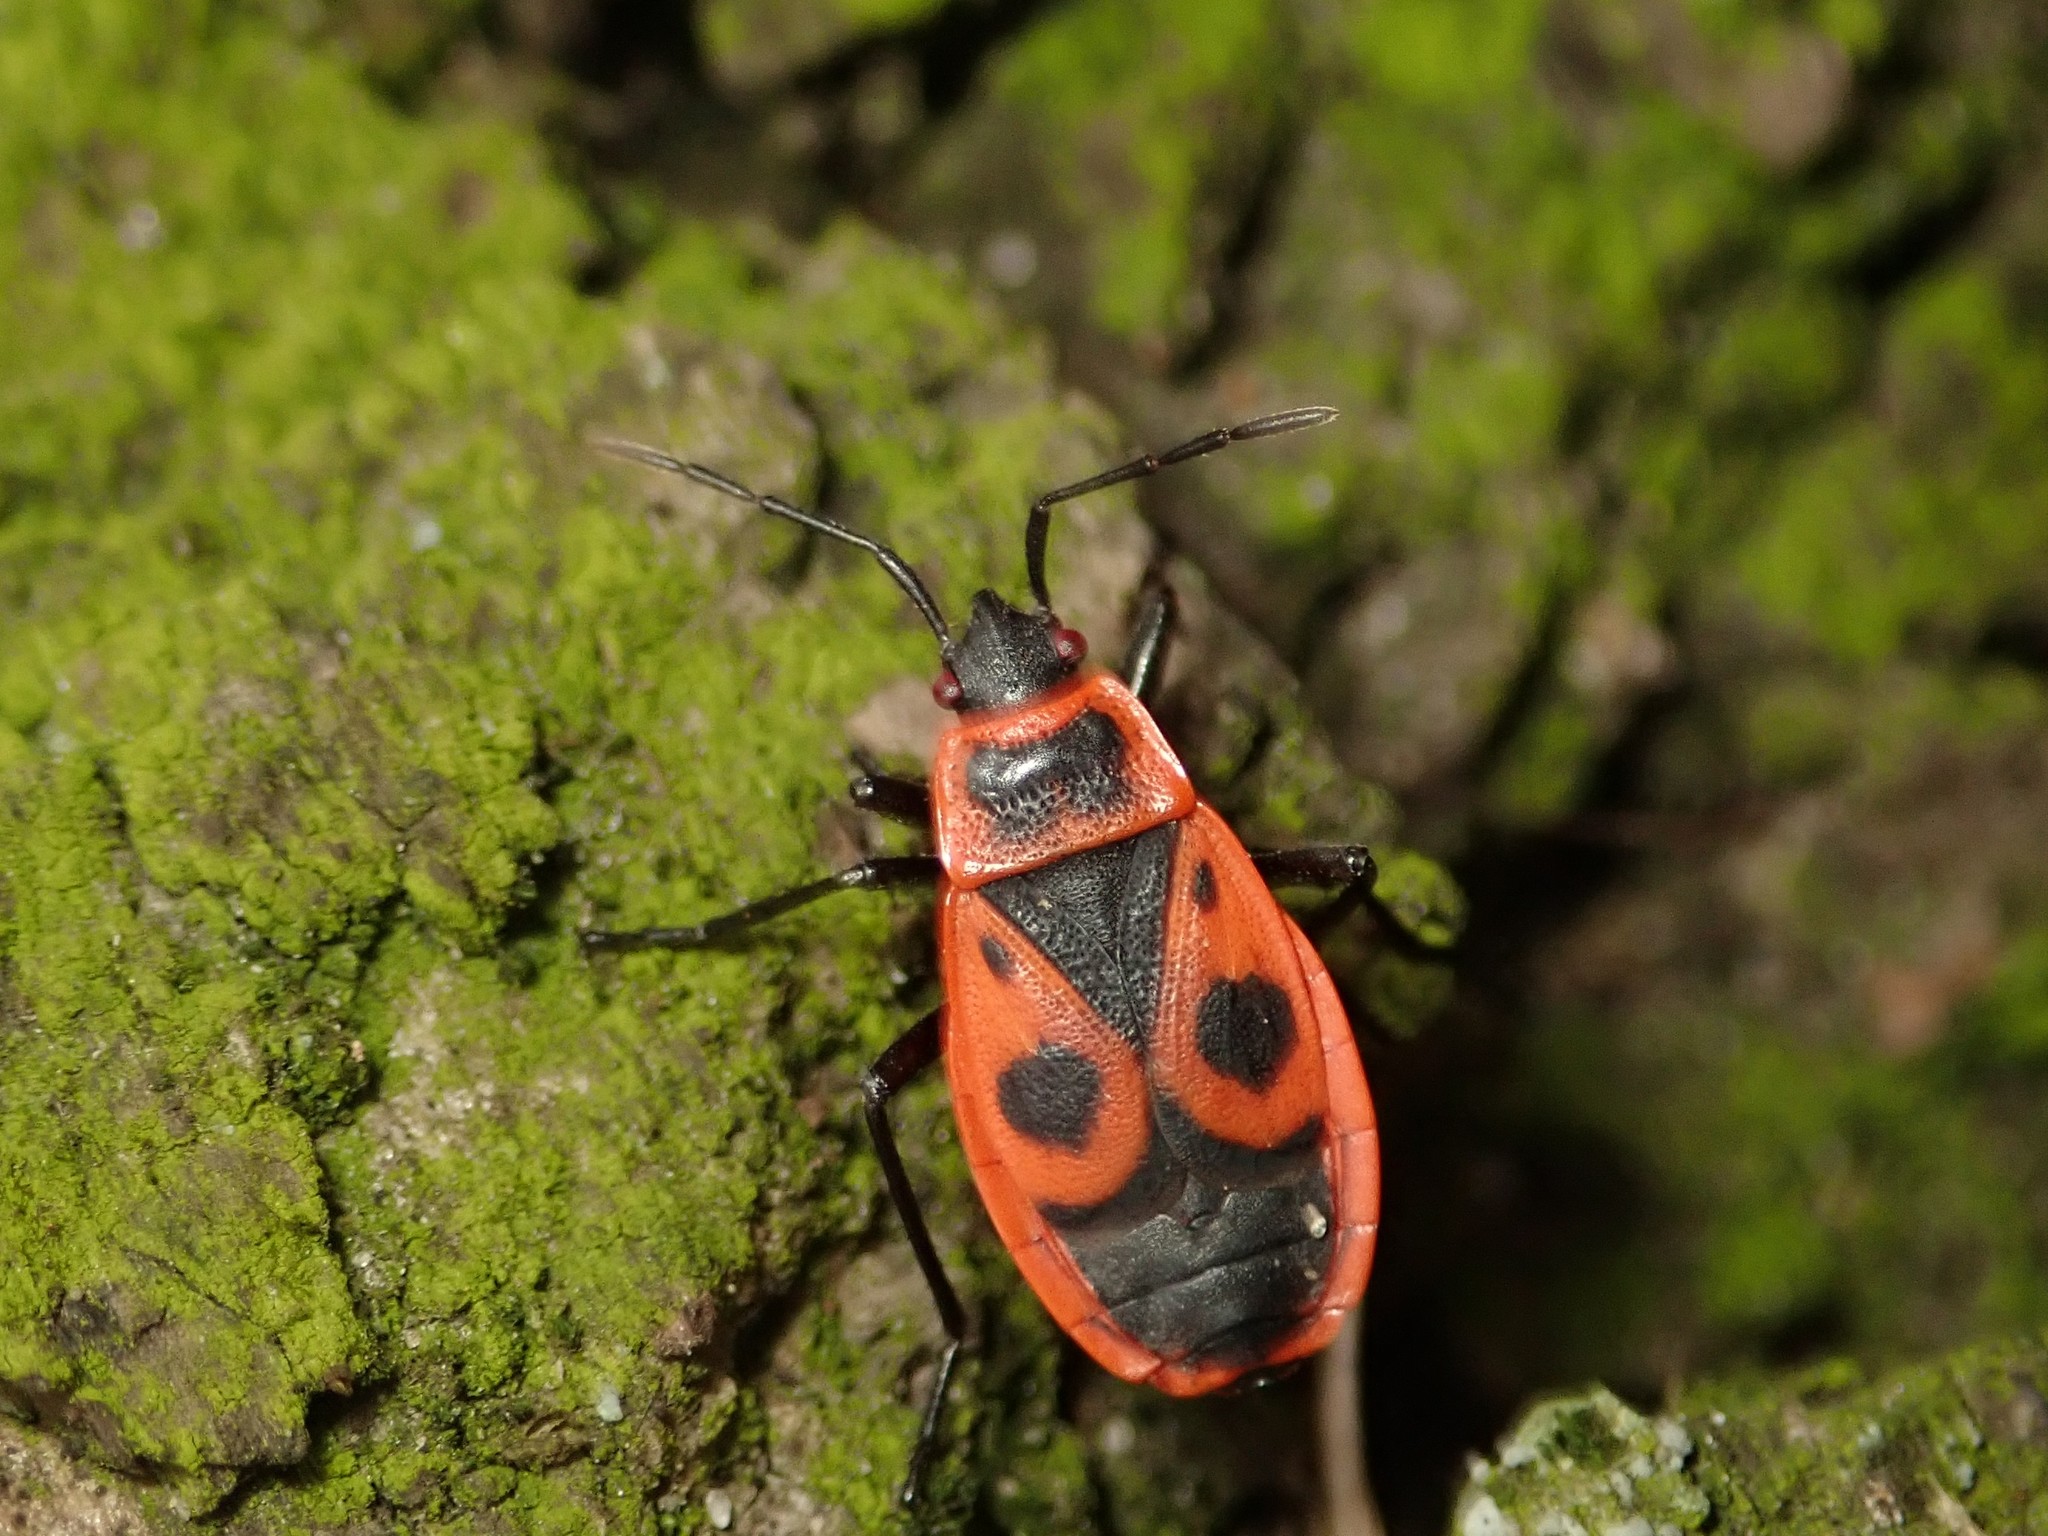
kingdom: Animalia
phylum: Arthropoda
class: Insecta
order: Hemiptera
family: Pyrrhocoridae
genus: Pyrrhocoris
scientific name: Pyrrhocoris apterus
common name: Firebug
